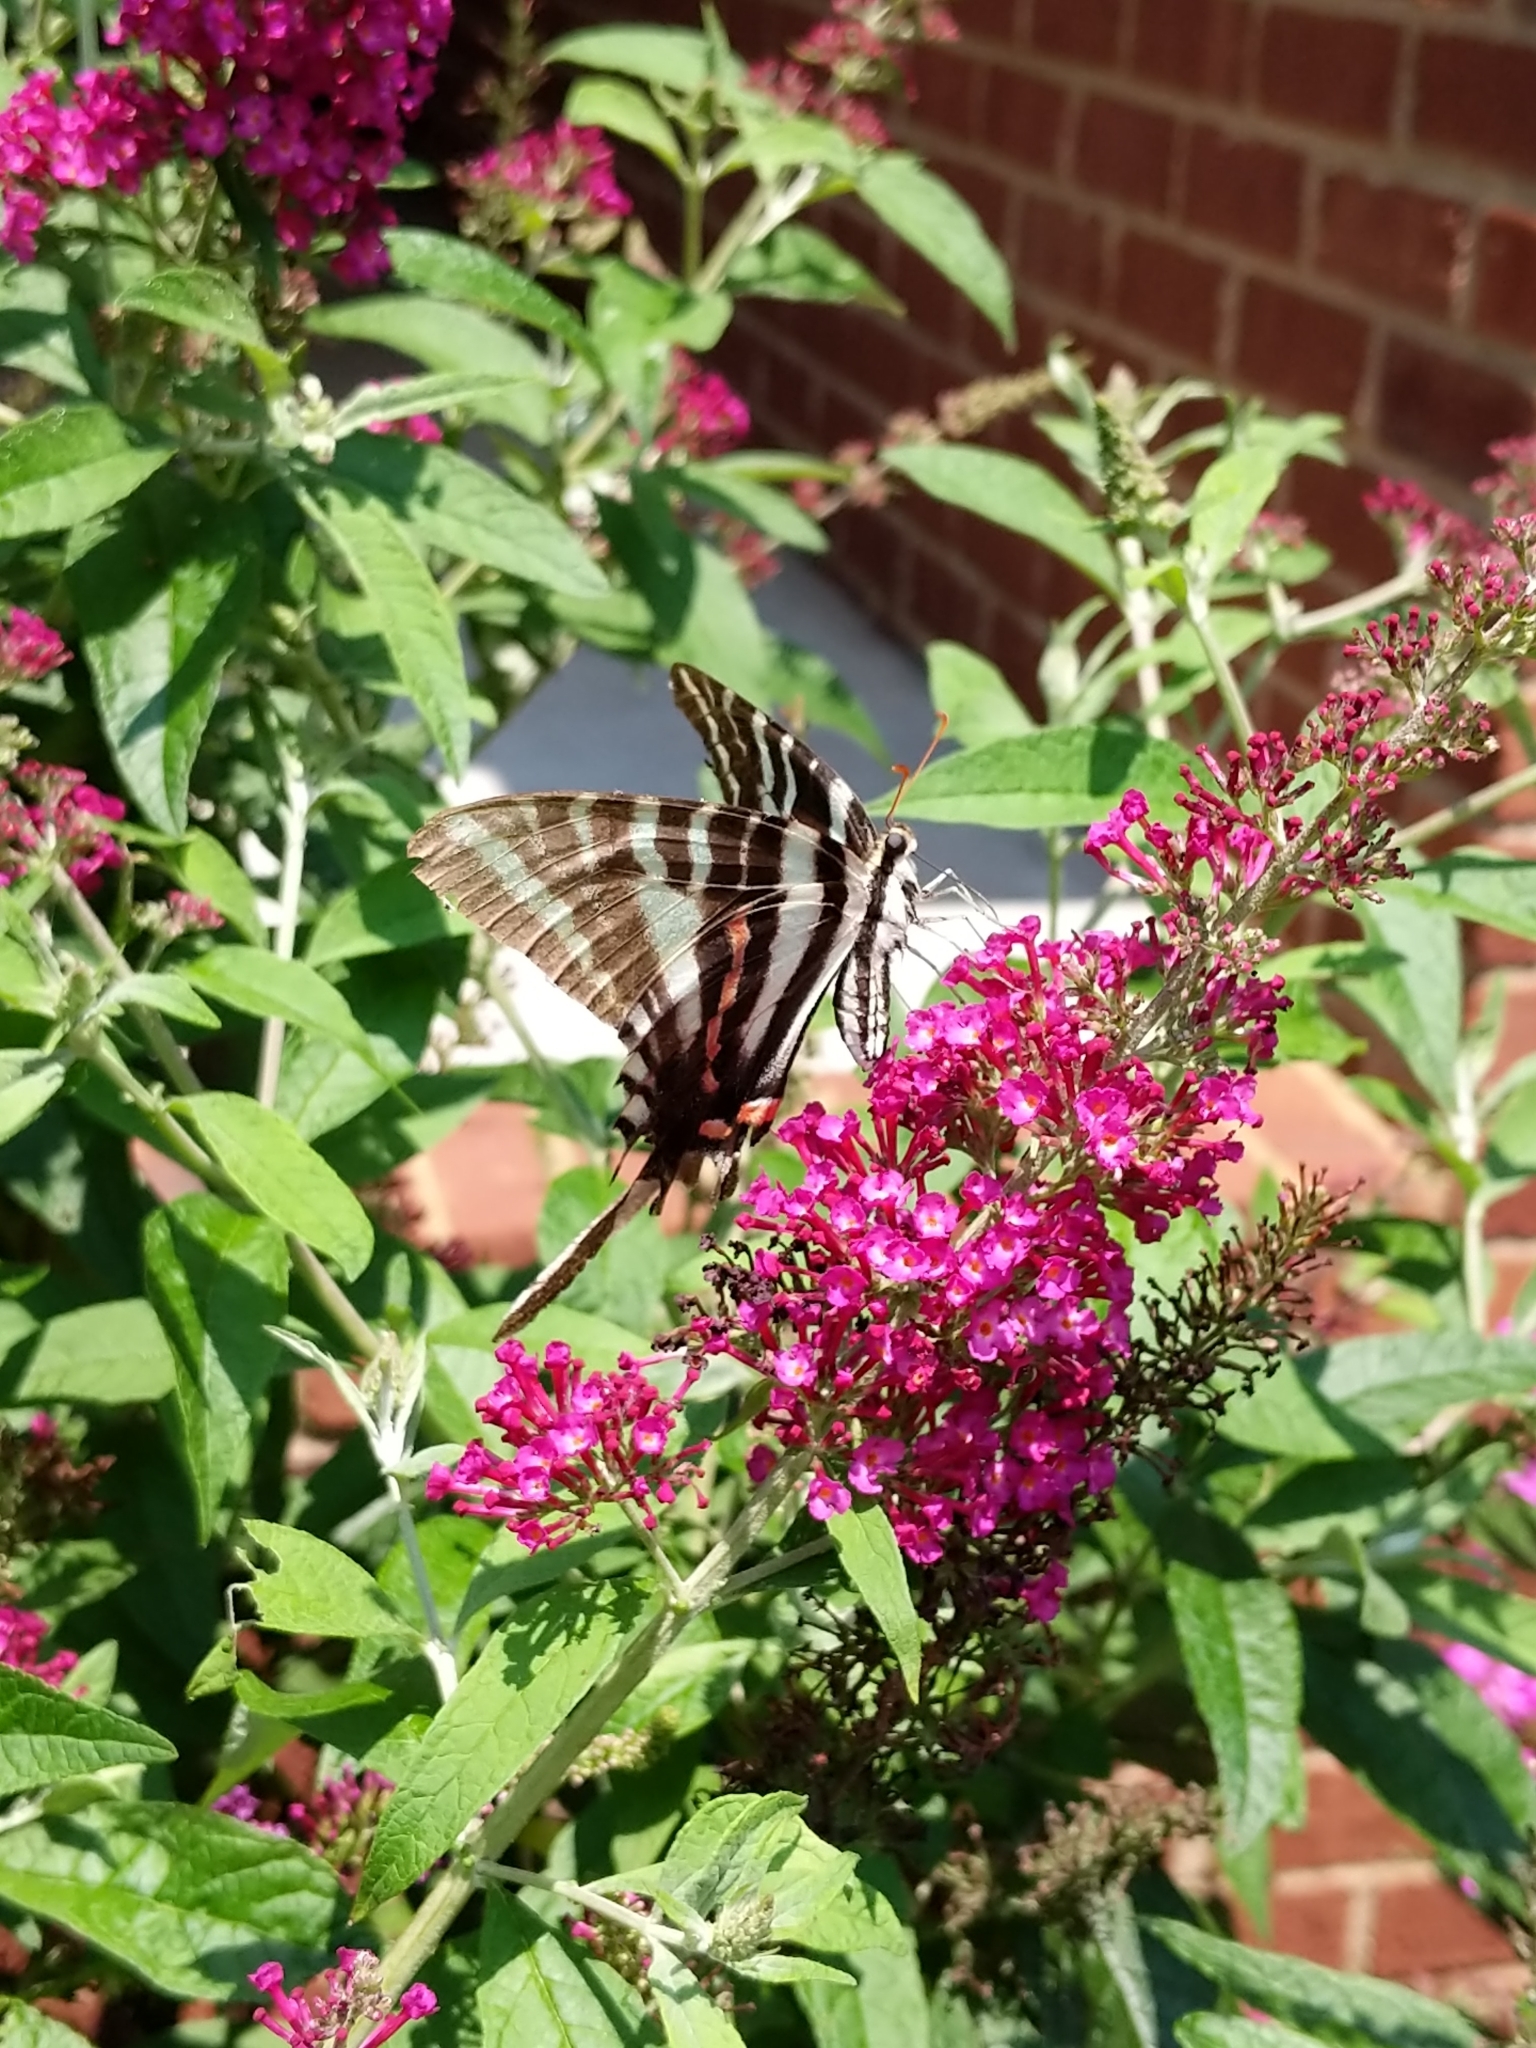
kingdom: Animalia
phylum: Arthropoda
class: Insecta
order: Lepidoptera
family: Papilionidae
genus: Protographium
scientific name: Protographium marcellus
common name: Zebra swallowtail
